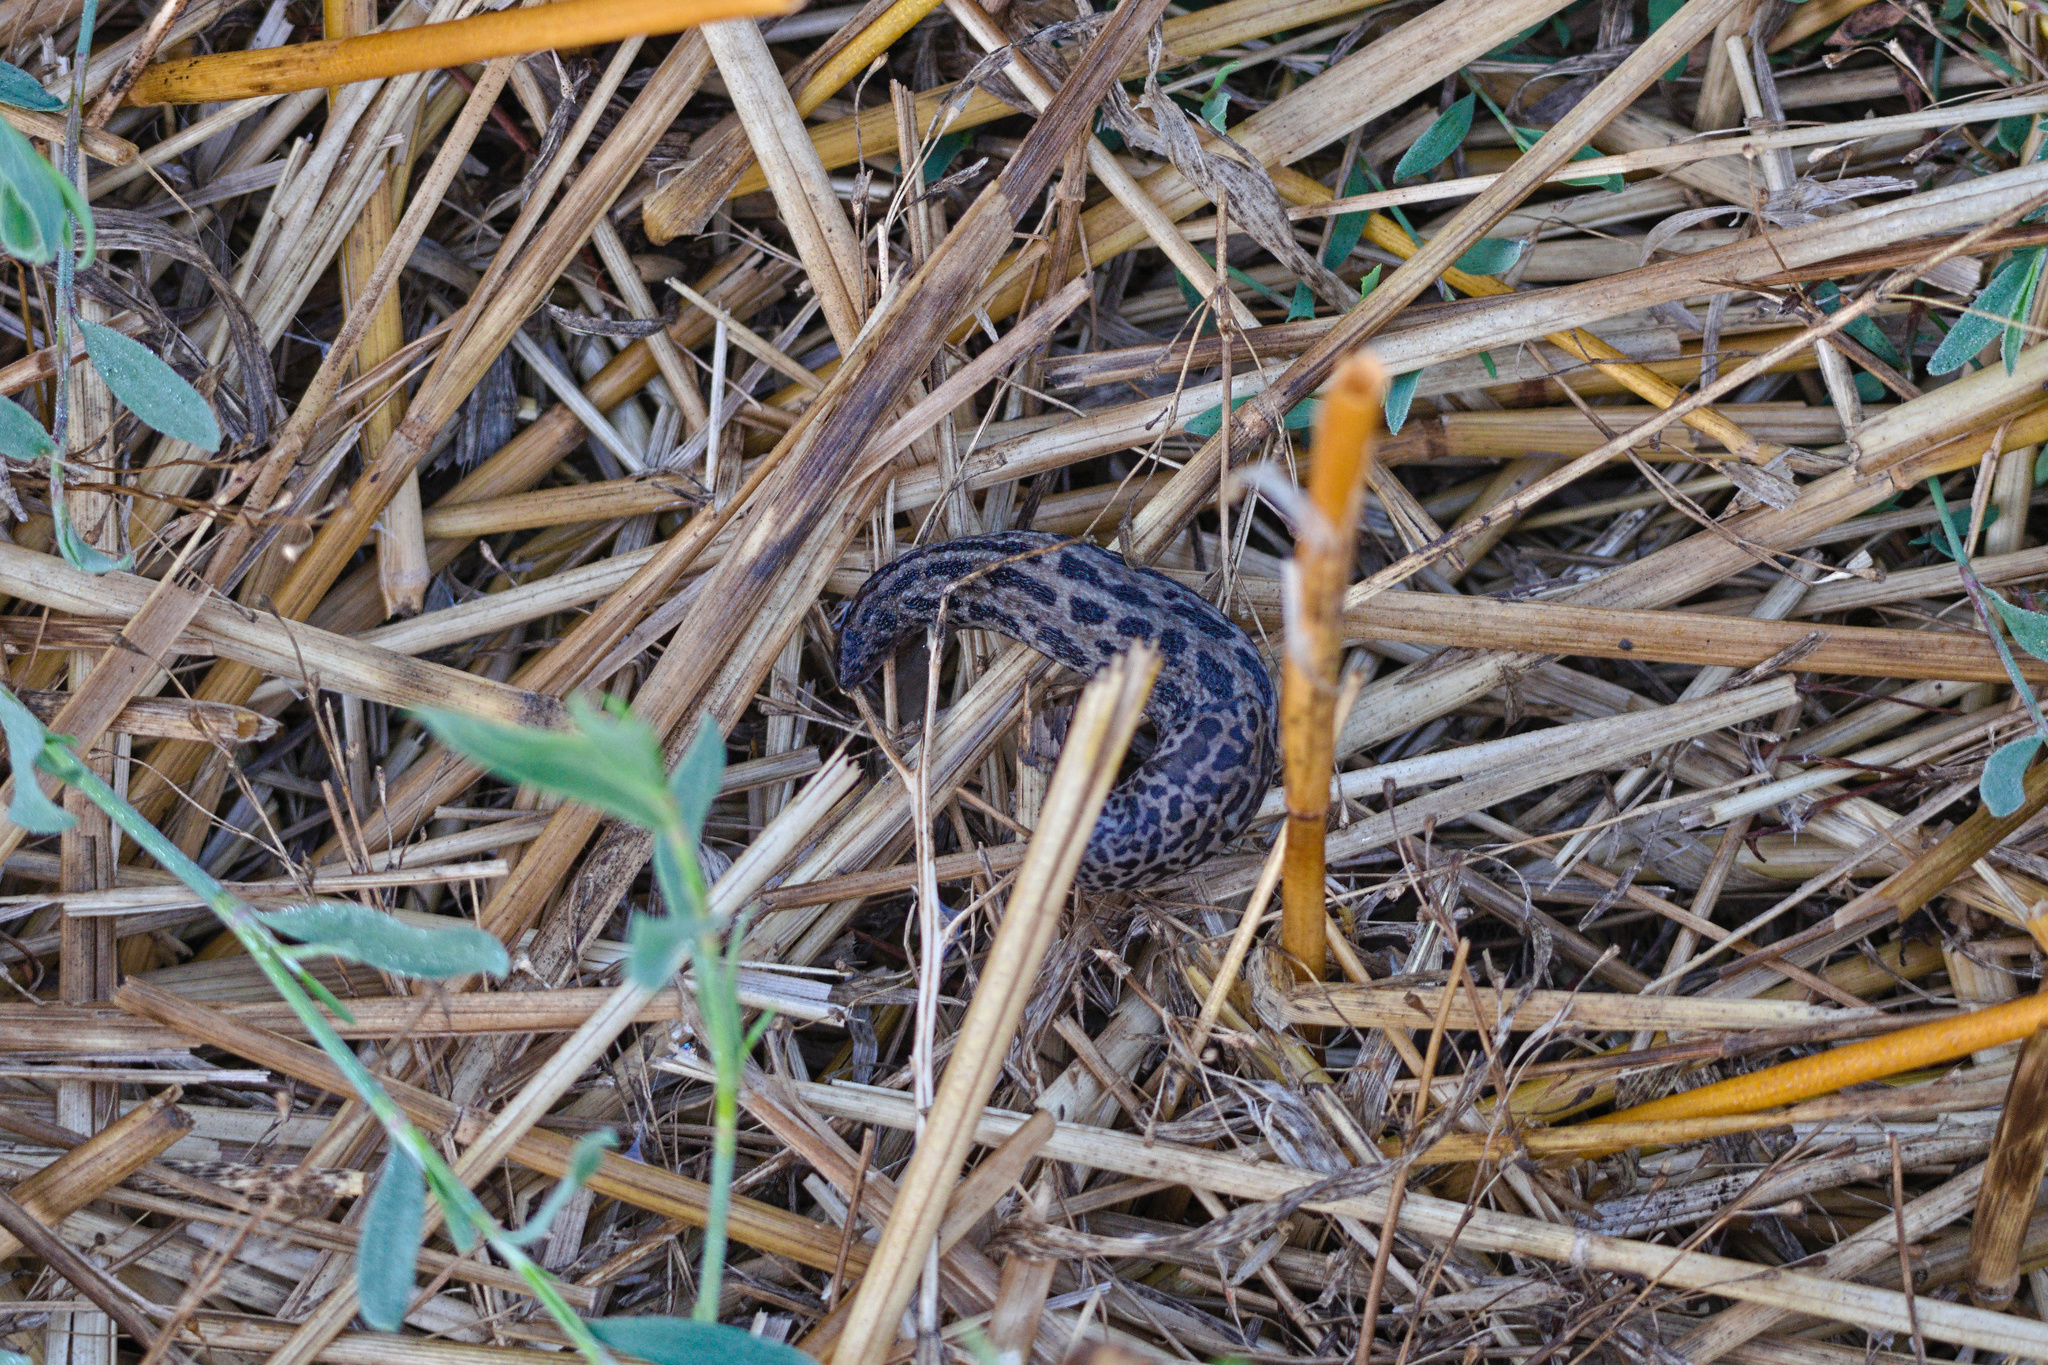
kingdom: Animalia
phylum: Mollusca
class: Gastropoda
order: Stylommatophora
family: Limacidae
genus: Limax
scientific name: Limax maximus
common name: Great grey slug
